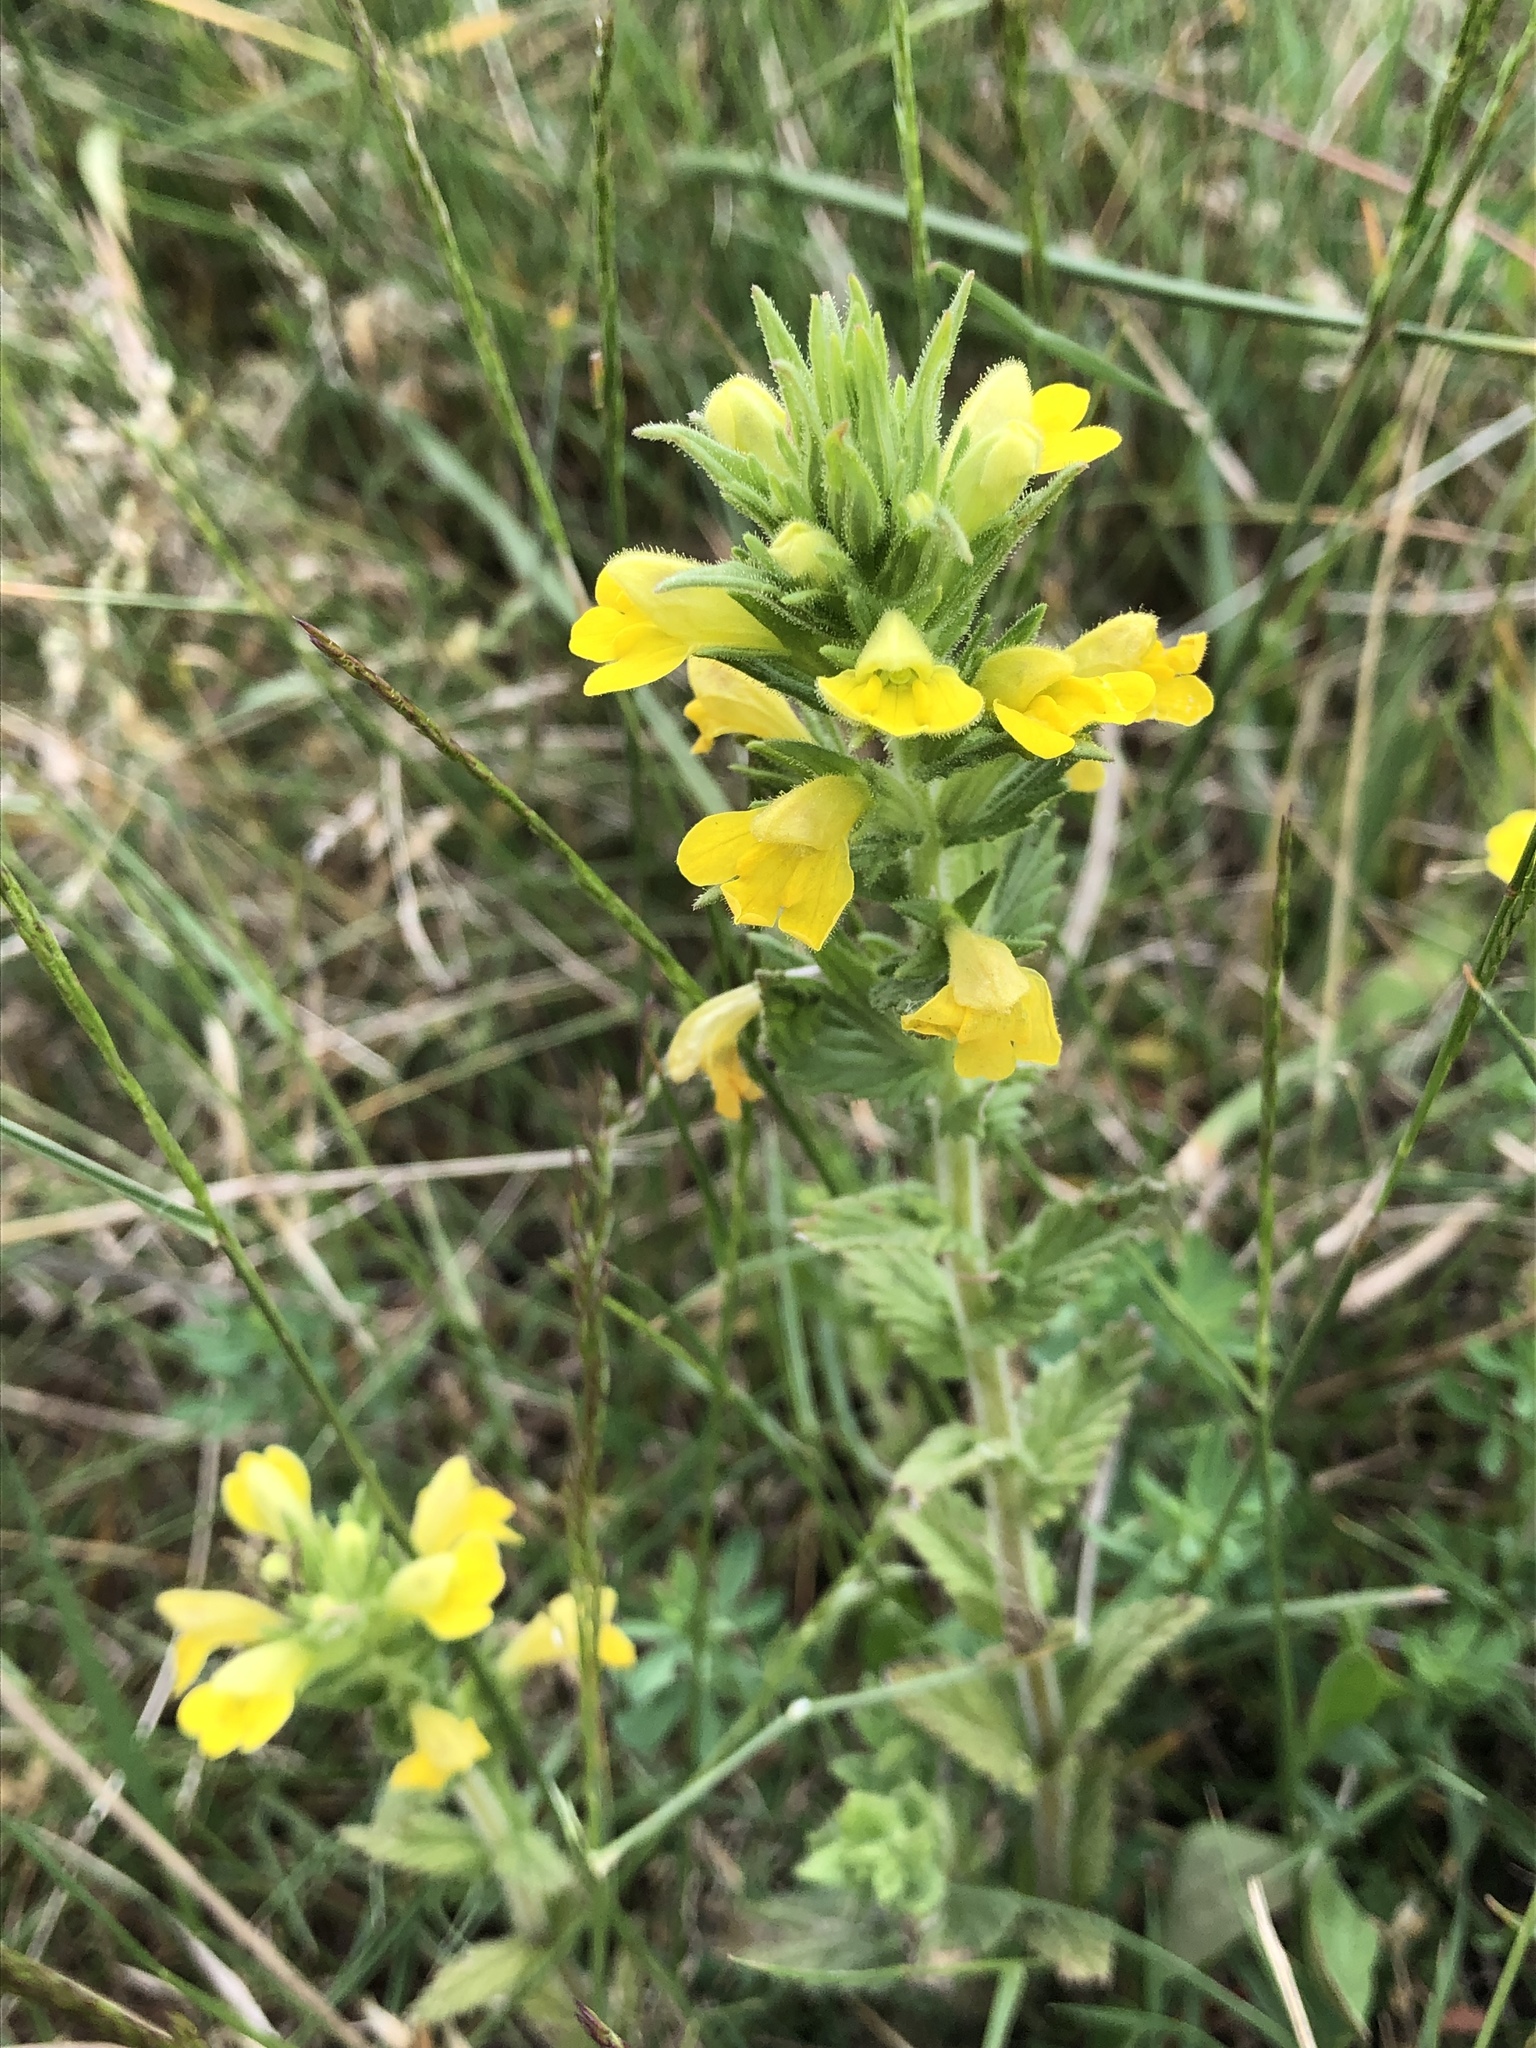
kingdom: Plantae
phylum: Tracheophyta
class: Magnoliopsida
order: Lamiales
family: Orobanchaceae
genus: Bellardia
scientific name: Bellardia viscosa
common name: Sticky parentucellia
